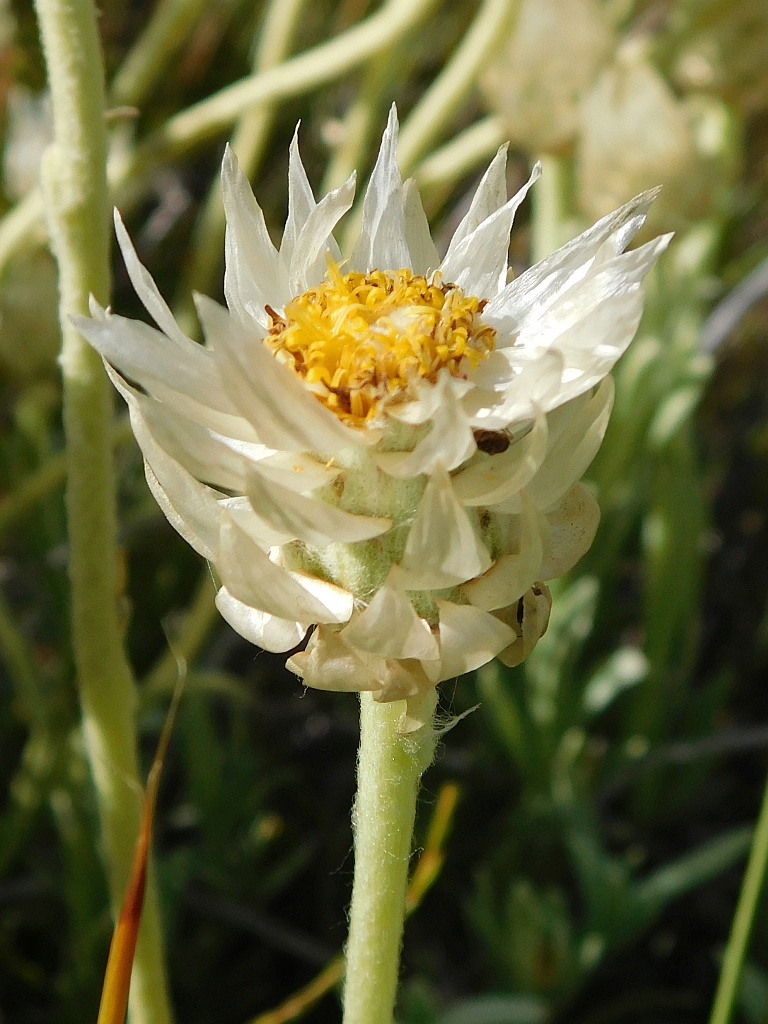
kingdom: Plantae
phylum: Tracheophyta
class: Magnoliopsida
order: Asterales
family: Asteraceae
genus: Syncarpha
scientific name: Syncarpha speciosissima
